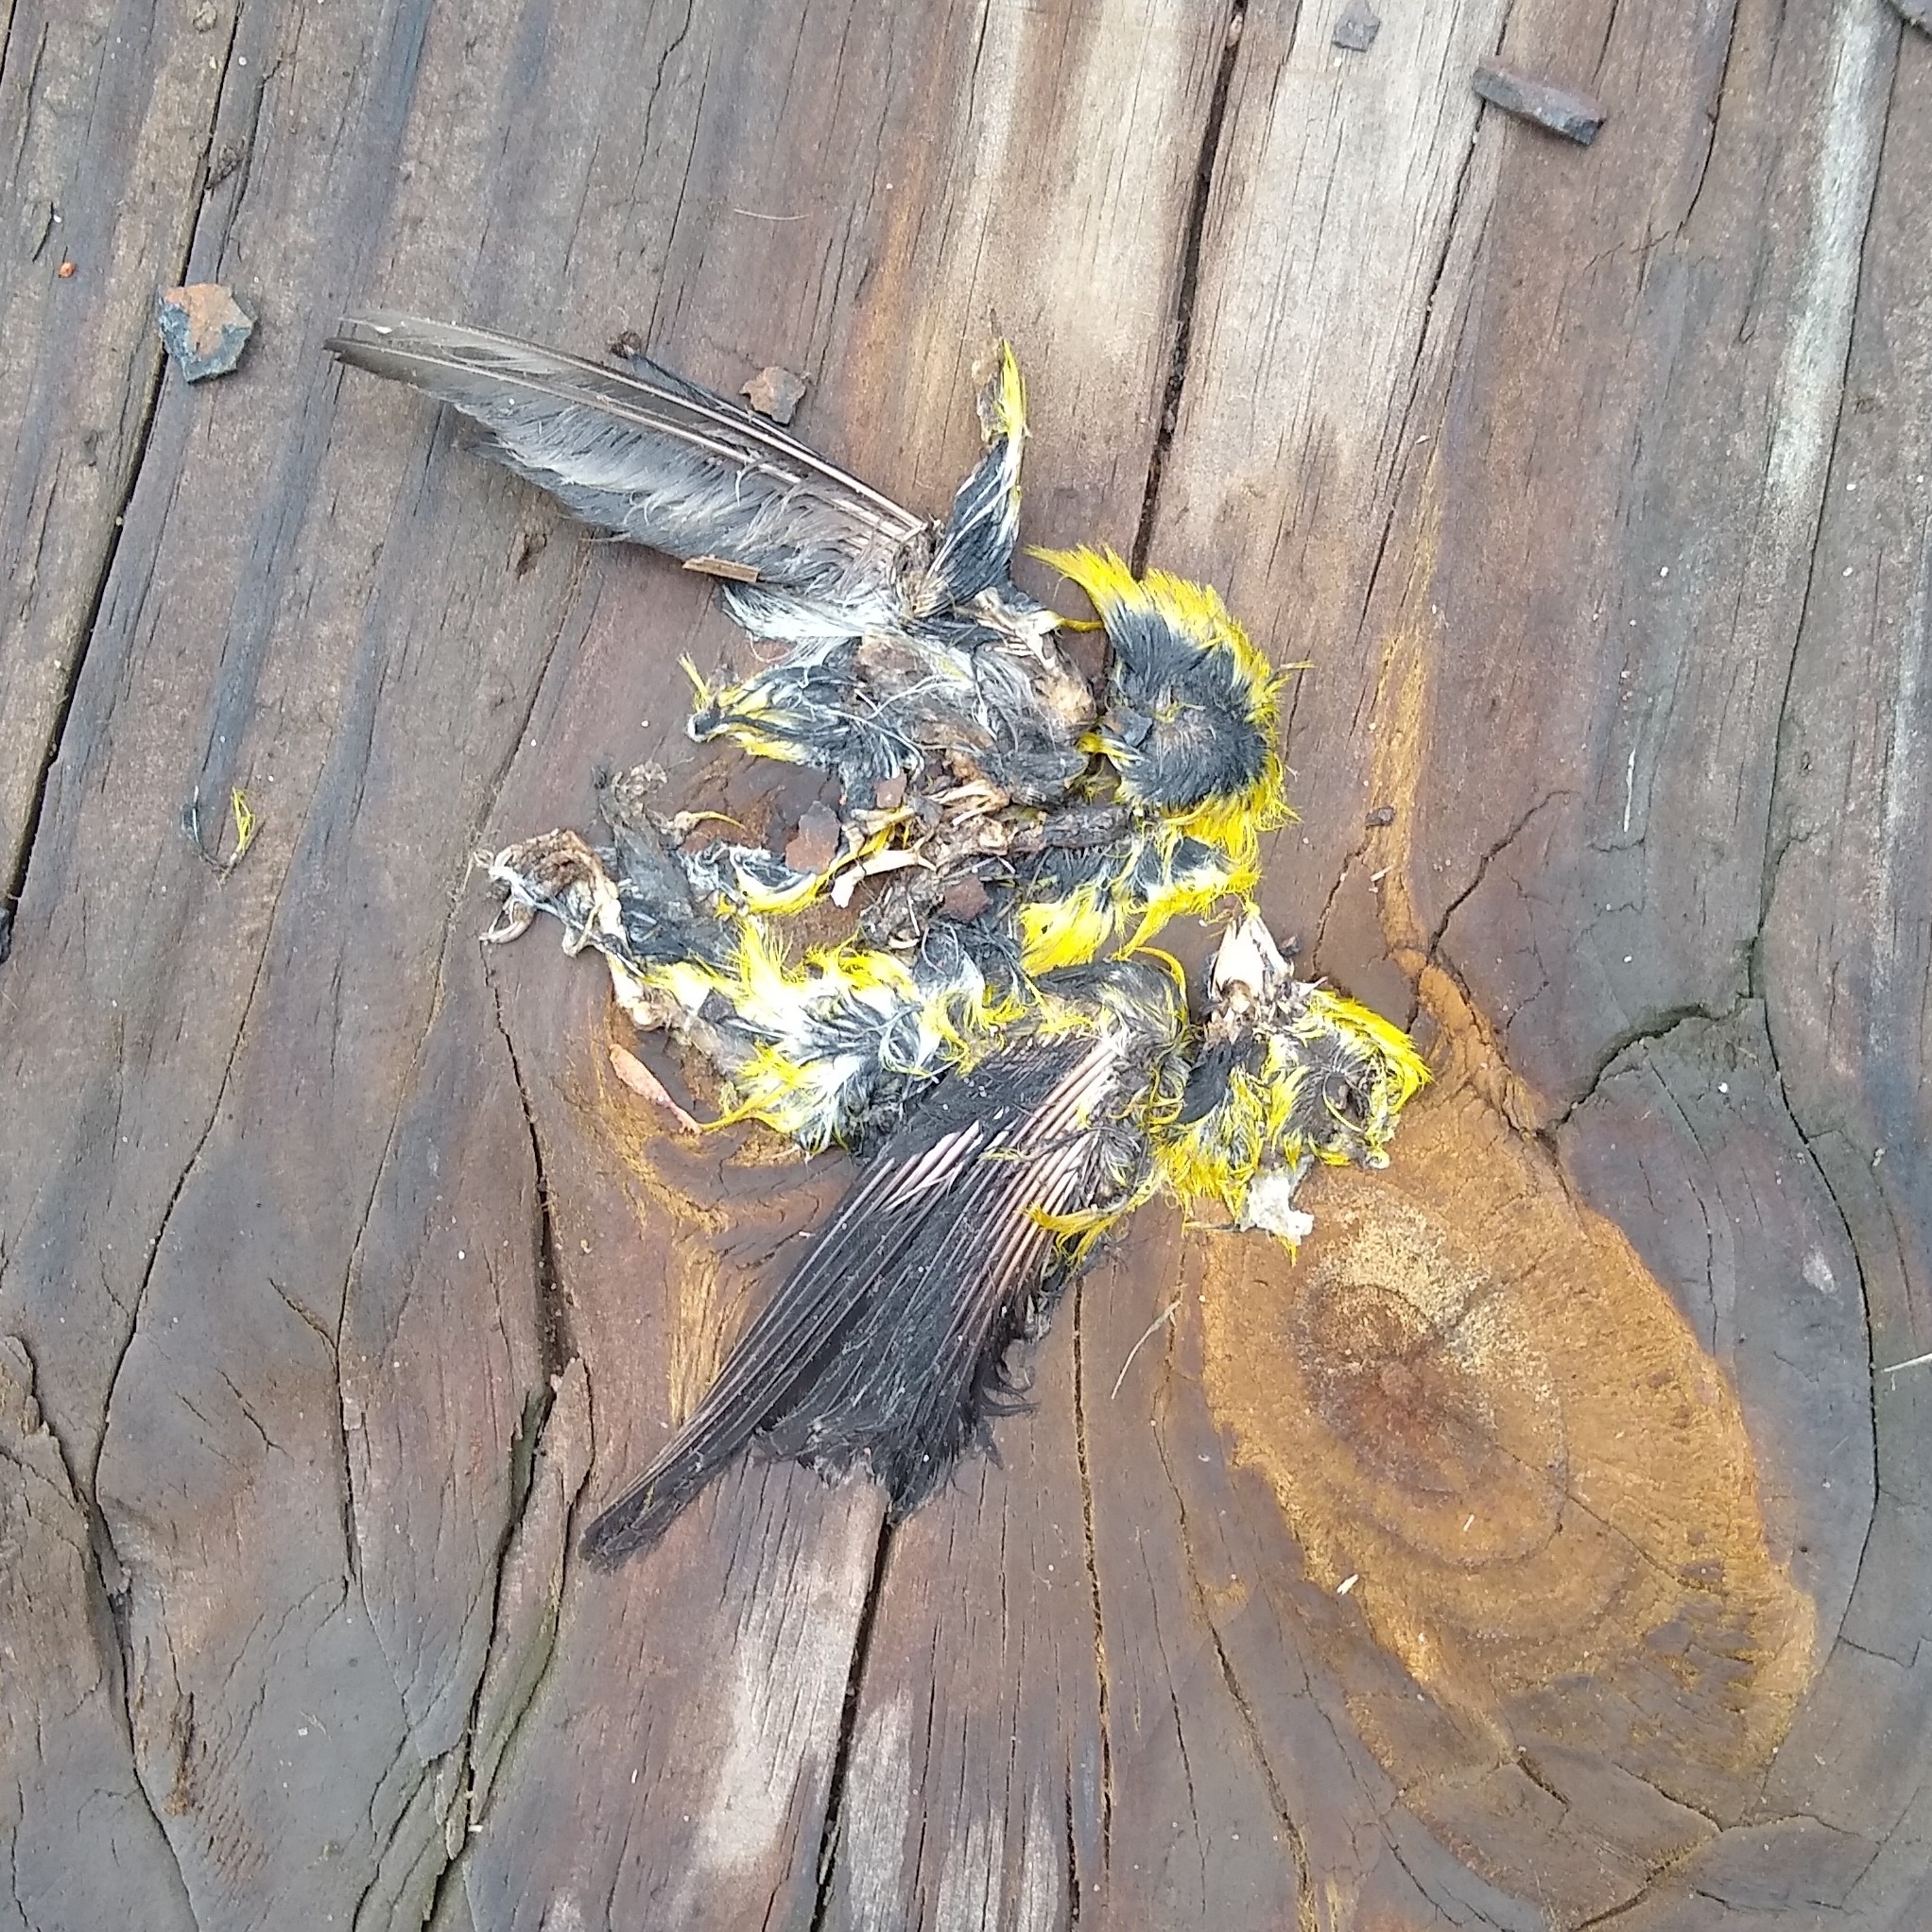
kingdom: Animalia
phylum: Chordata
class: Aves
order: Passeriformes
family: Fringillidae
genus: Spinus
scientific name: Spinus tristis
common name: American goldfinch
